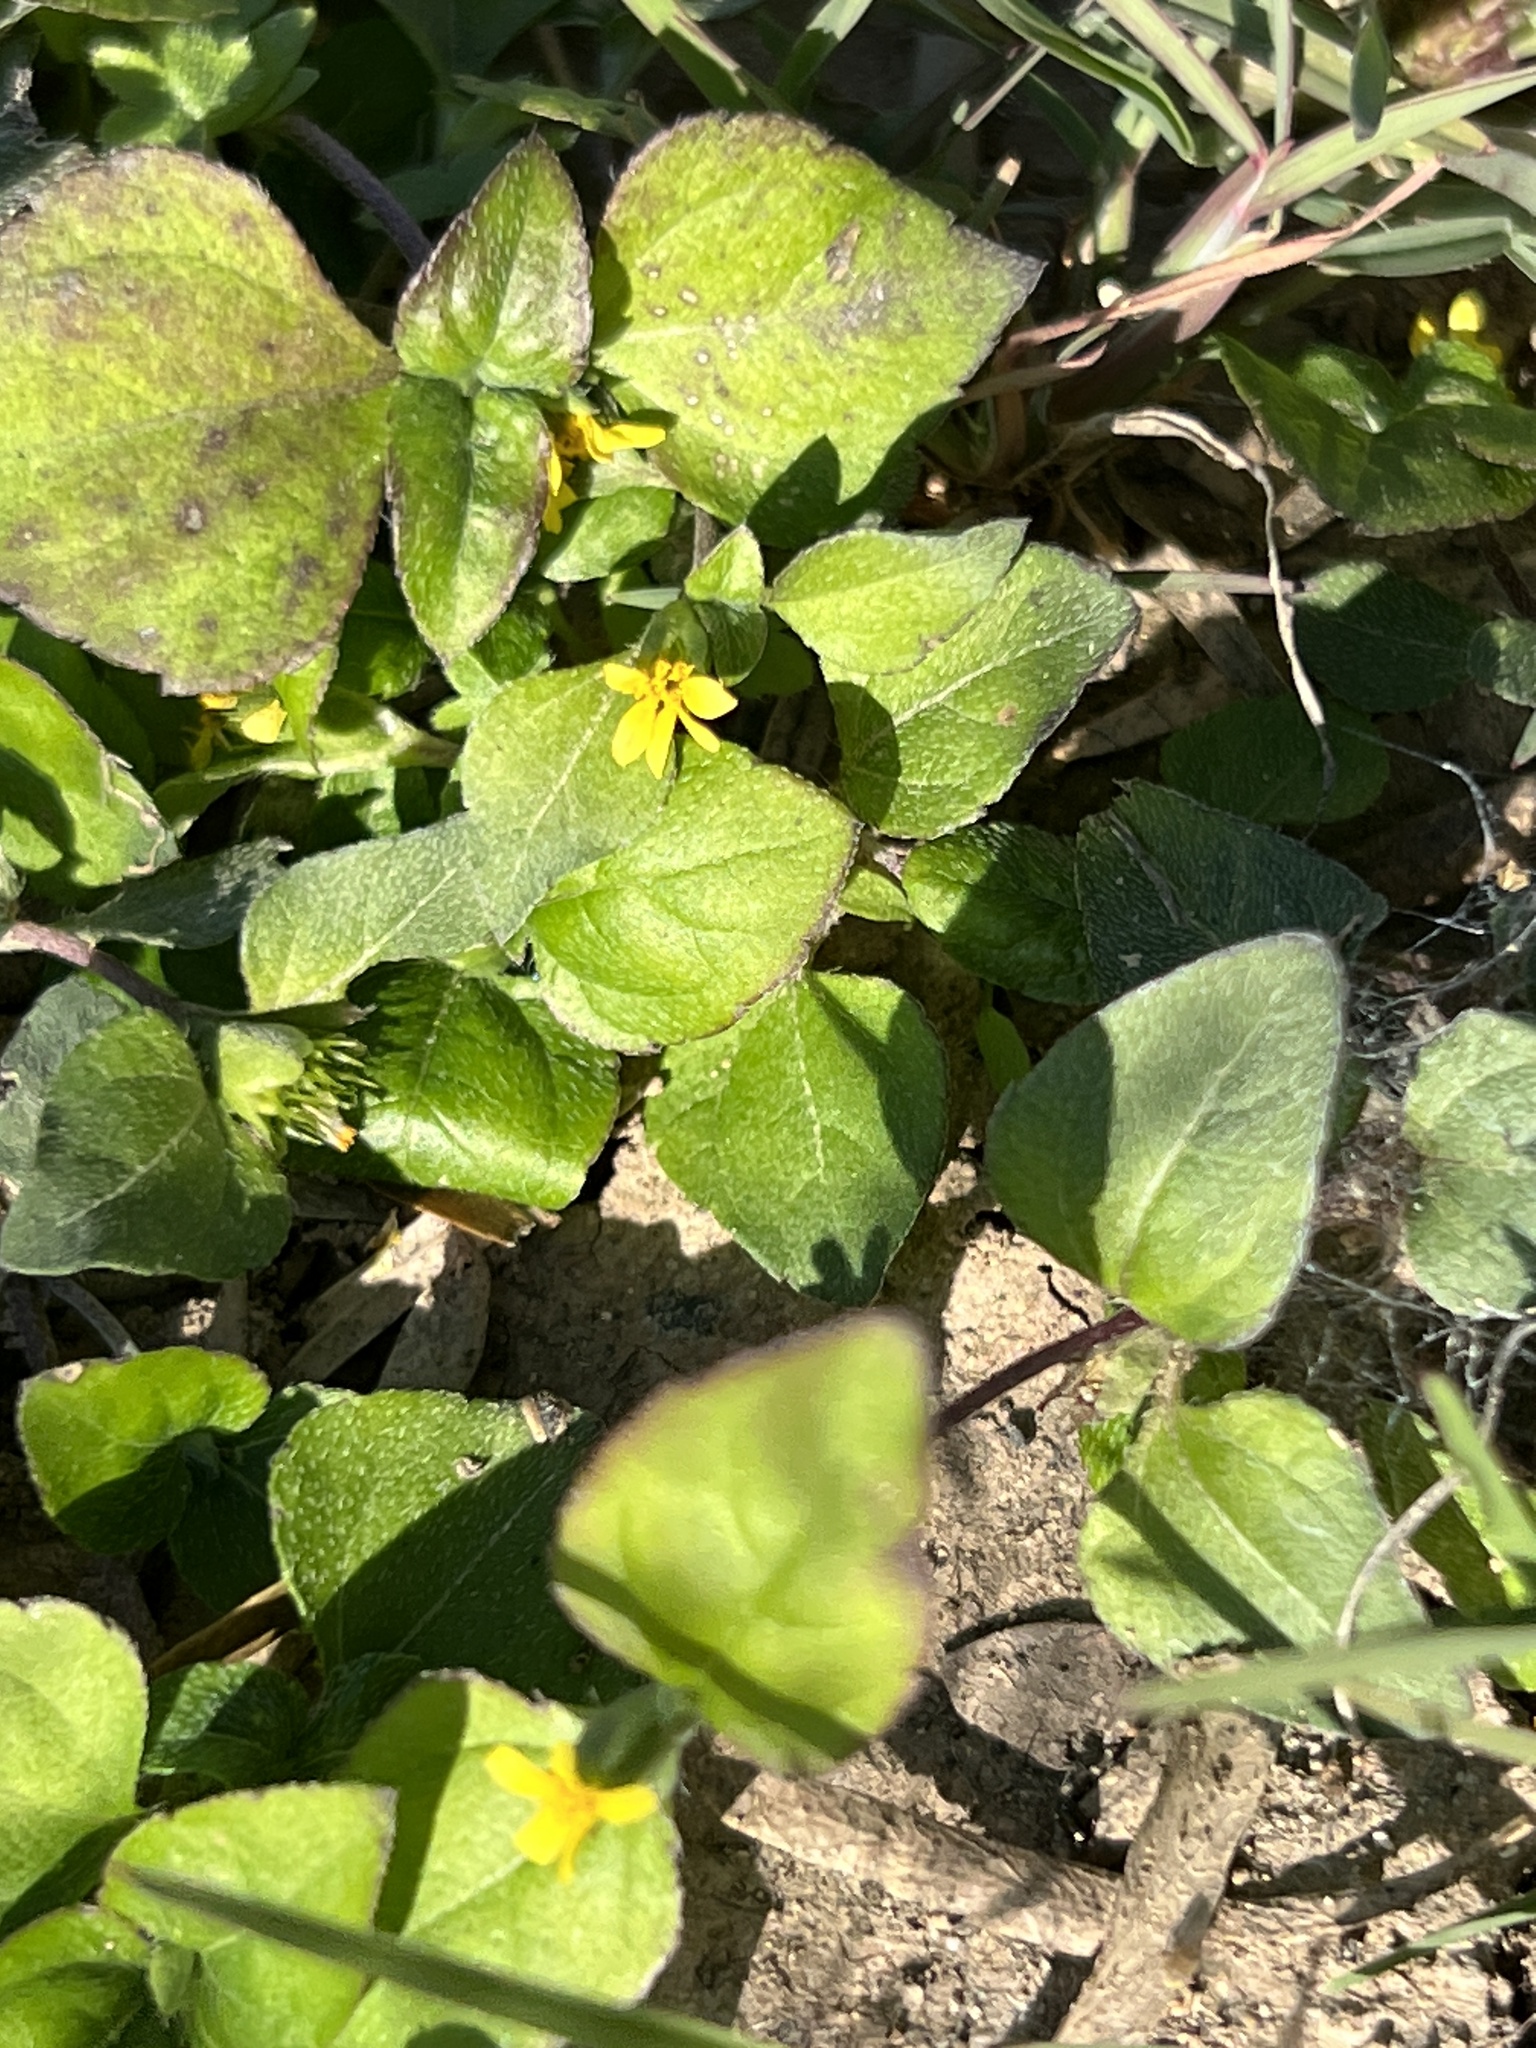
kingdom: Plantae
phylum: Tracheophyta
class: Magnoliopsida
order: Asterales
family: Asteraceae
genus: Calyptocarpus
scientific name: Calyptocarpus vialis
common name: Straggler daisy
